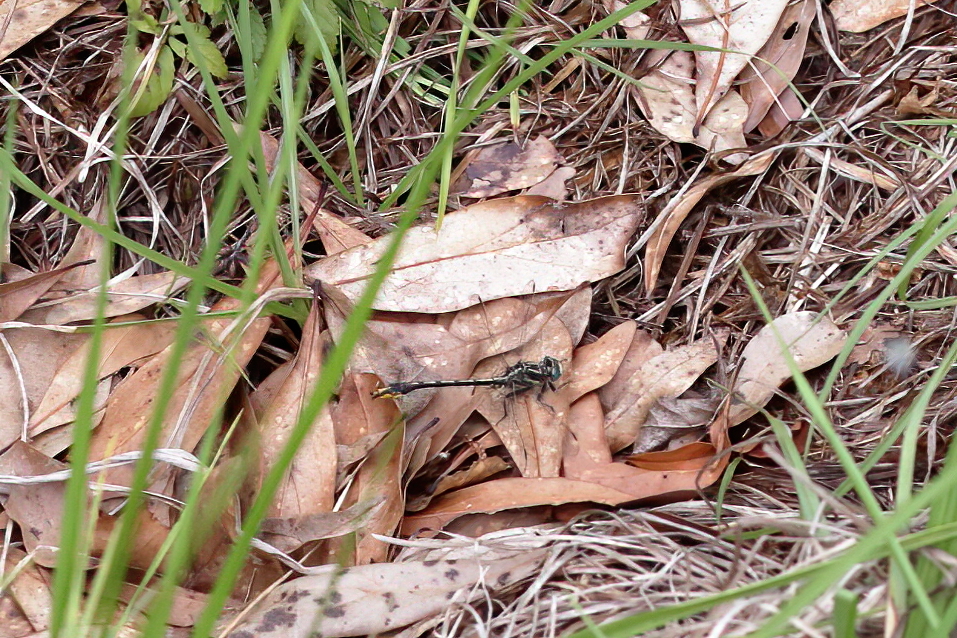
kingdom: Animalia
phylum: Arthropoda
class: Insecta
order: Odonata
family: Gomphidae
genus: Phanogomphus
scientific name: Phanogomphus exilis
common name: Lancet clubtail
